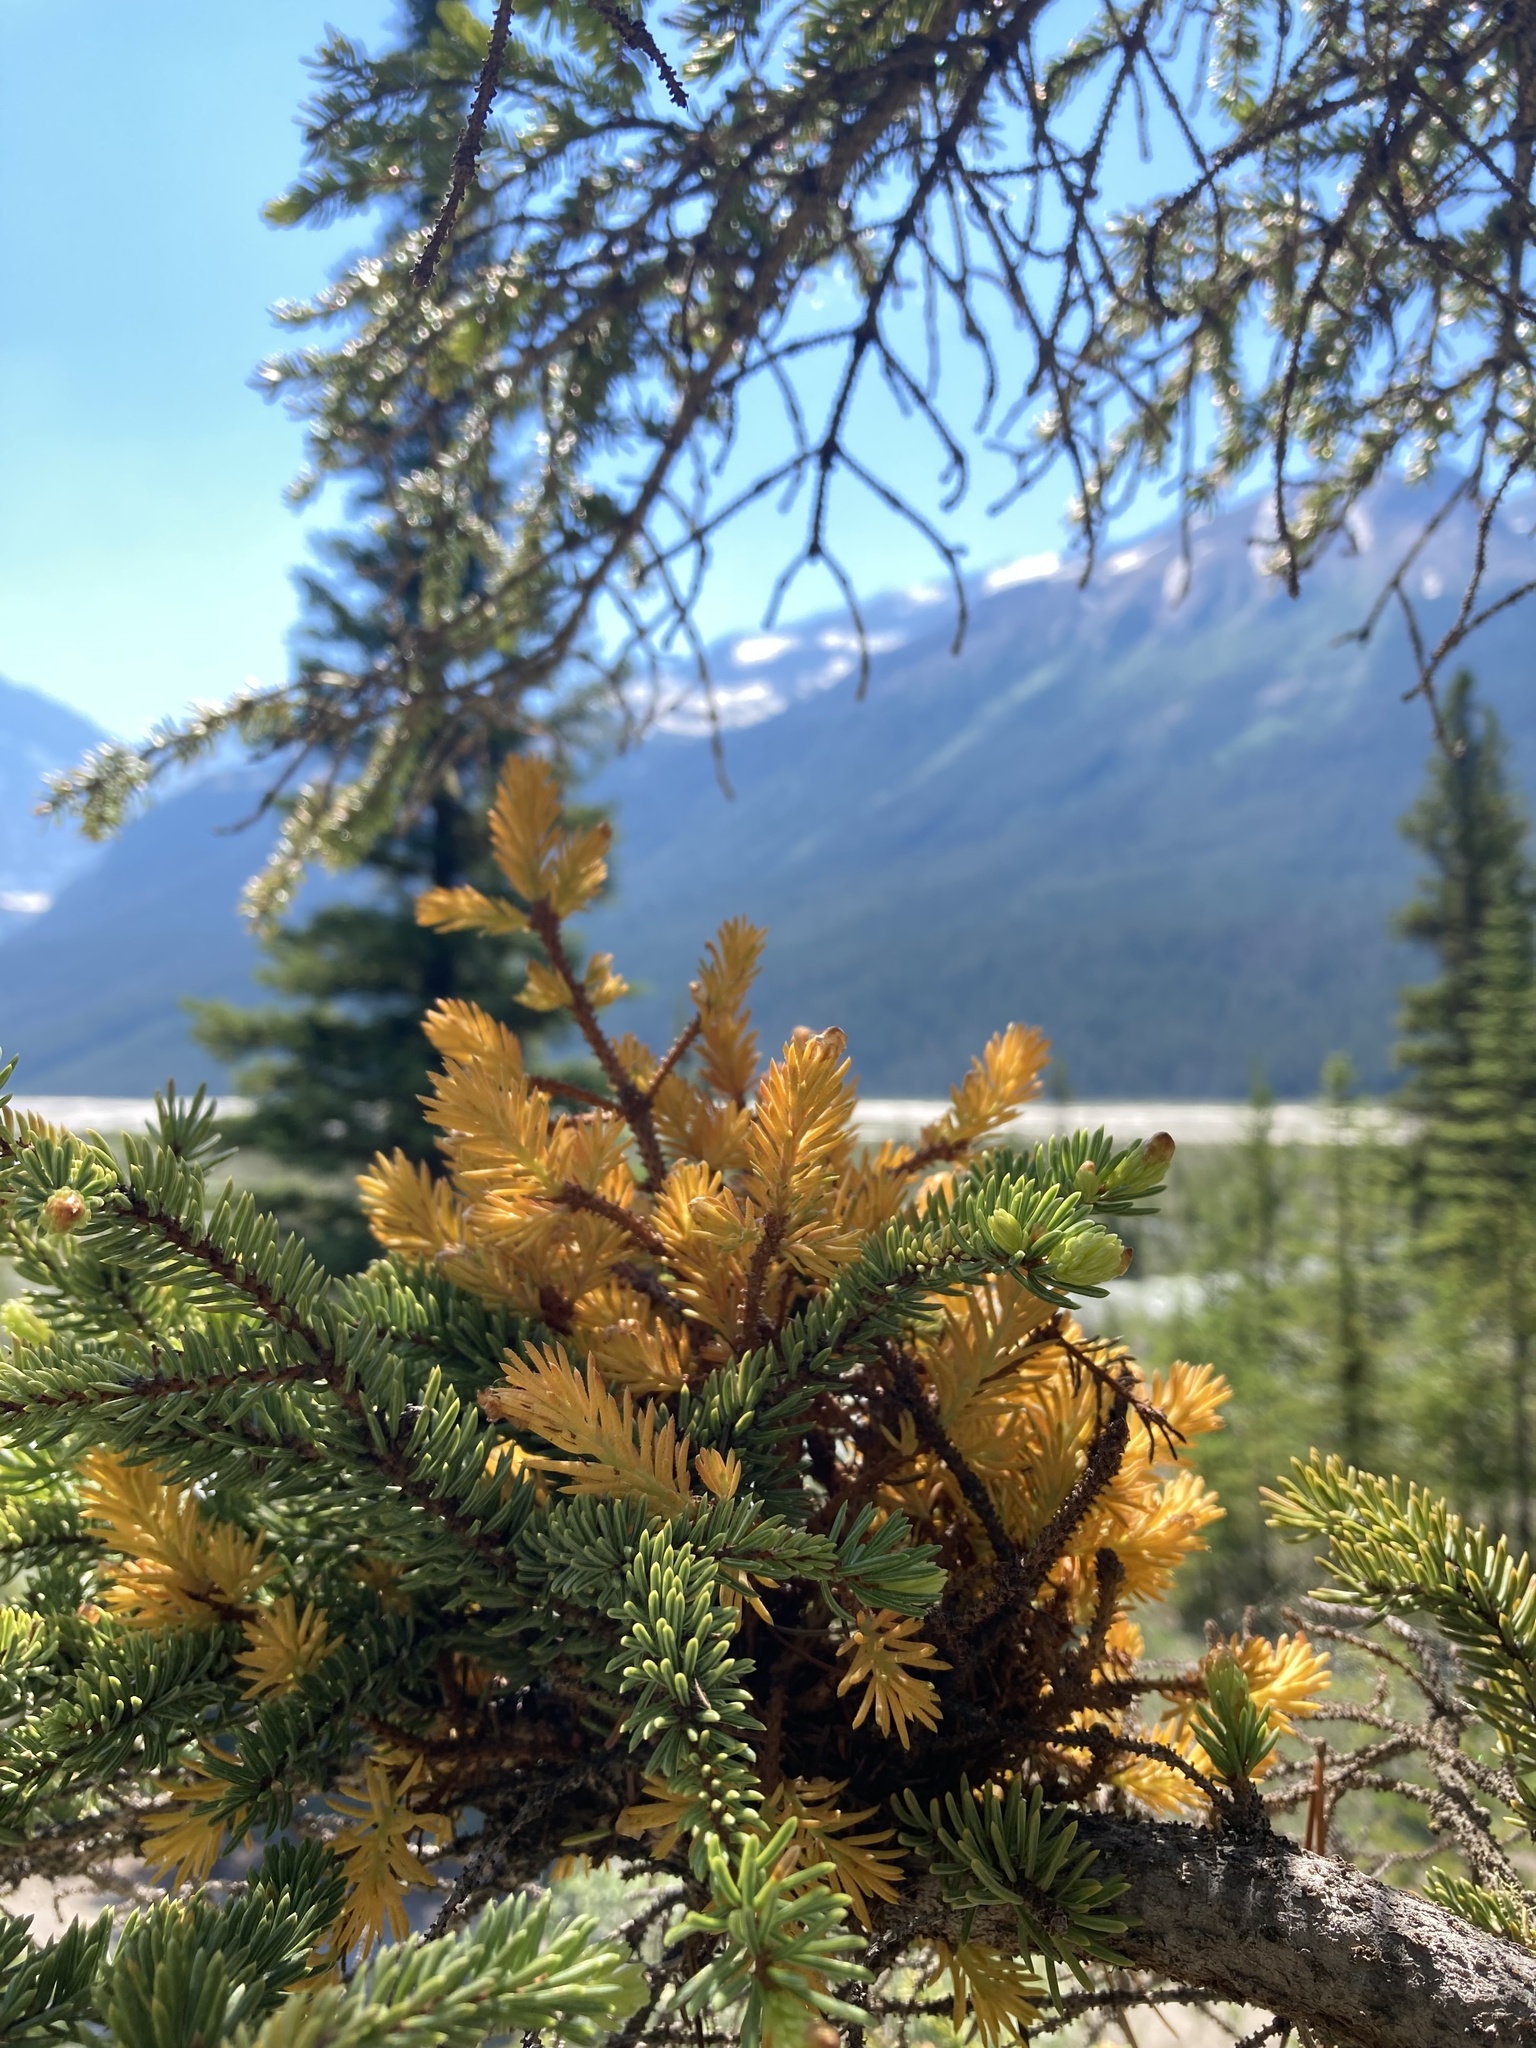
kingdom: Fungi
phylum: Basidiomycota
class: Pucciniomycetes
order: Pucciniales
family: Coleosporiaceae
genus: Chrysomyxa
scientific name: Chrysomyxa arctostaphyli
